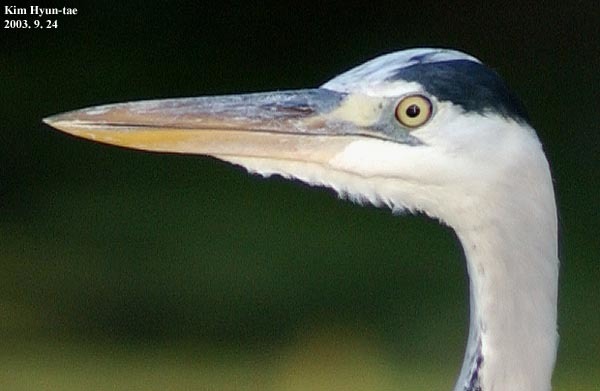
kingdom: Animalia
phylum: Chordata
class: Aves
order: Pelecaniformes
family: Ardeidae
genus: Ardea
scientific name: Ardea cinerea
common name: Grey heron
